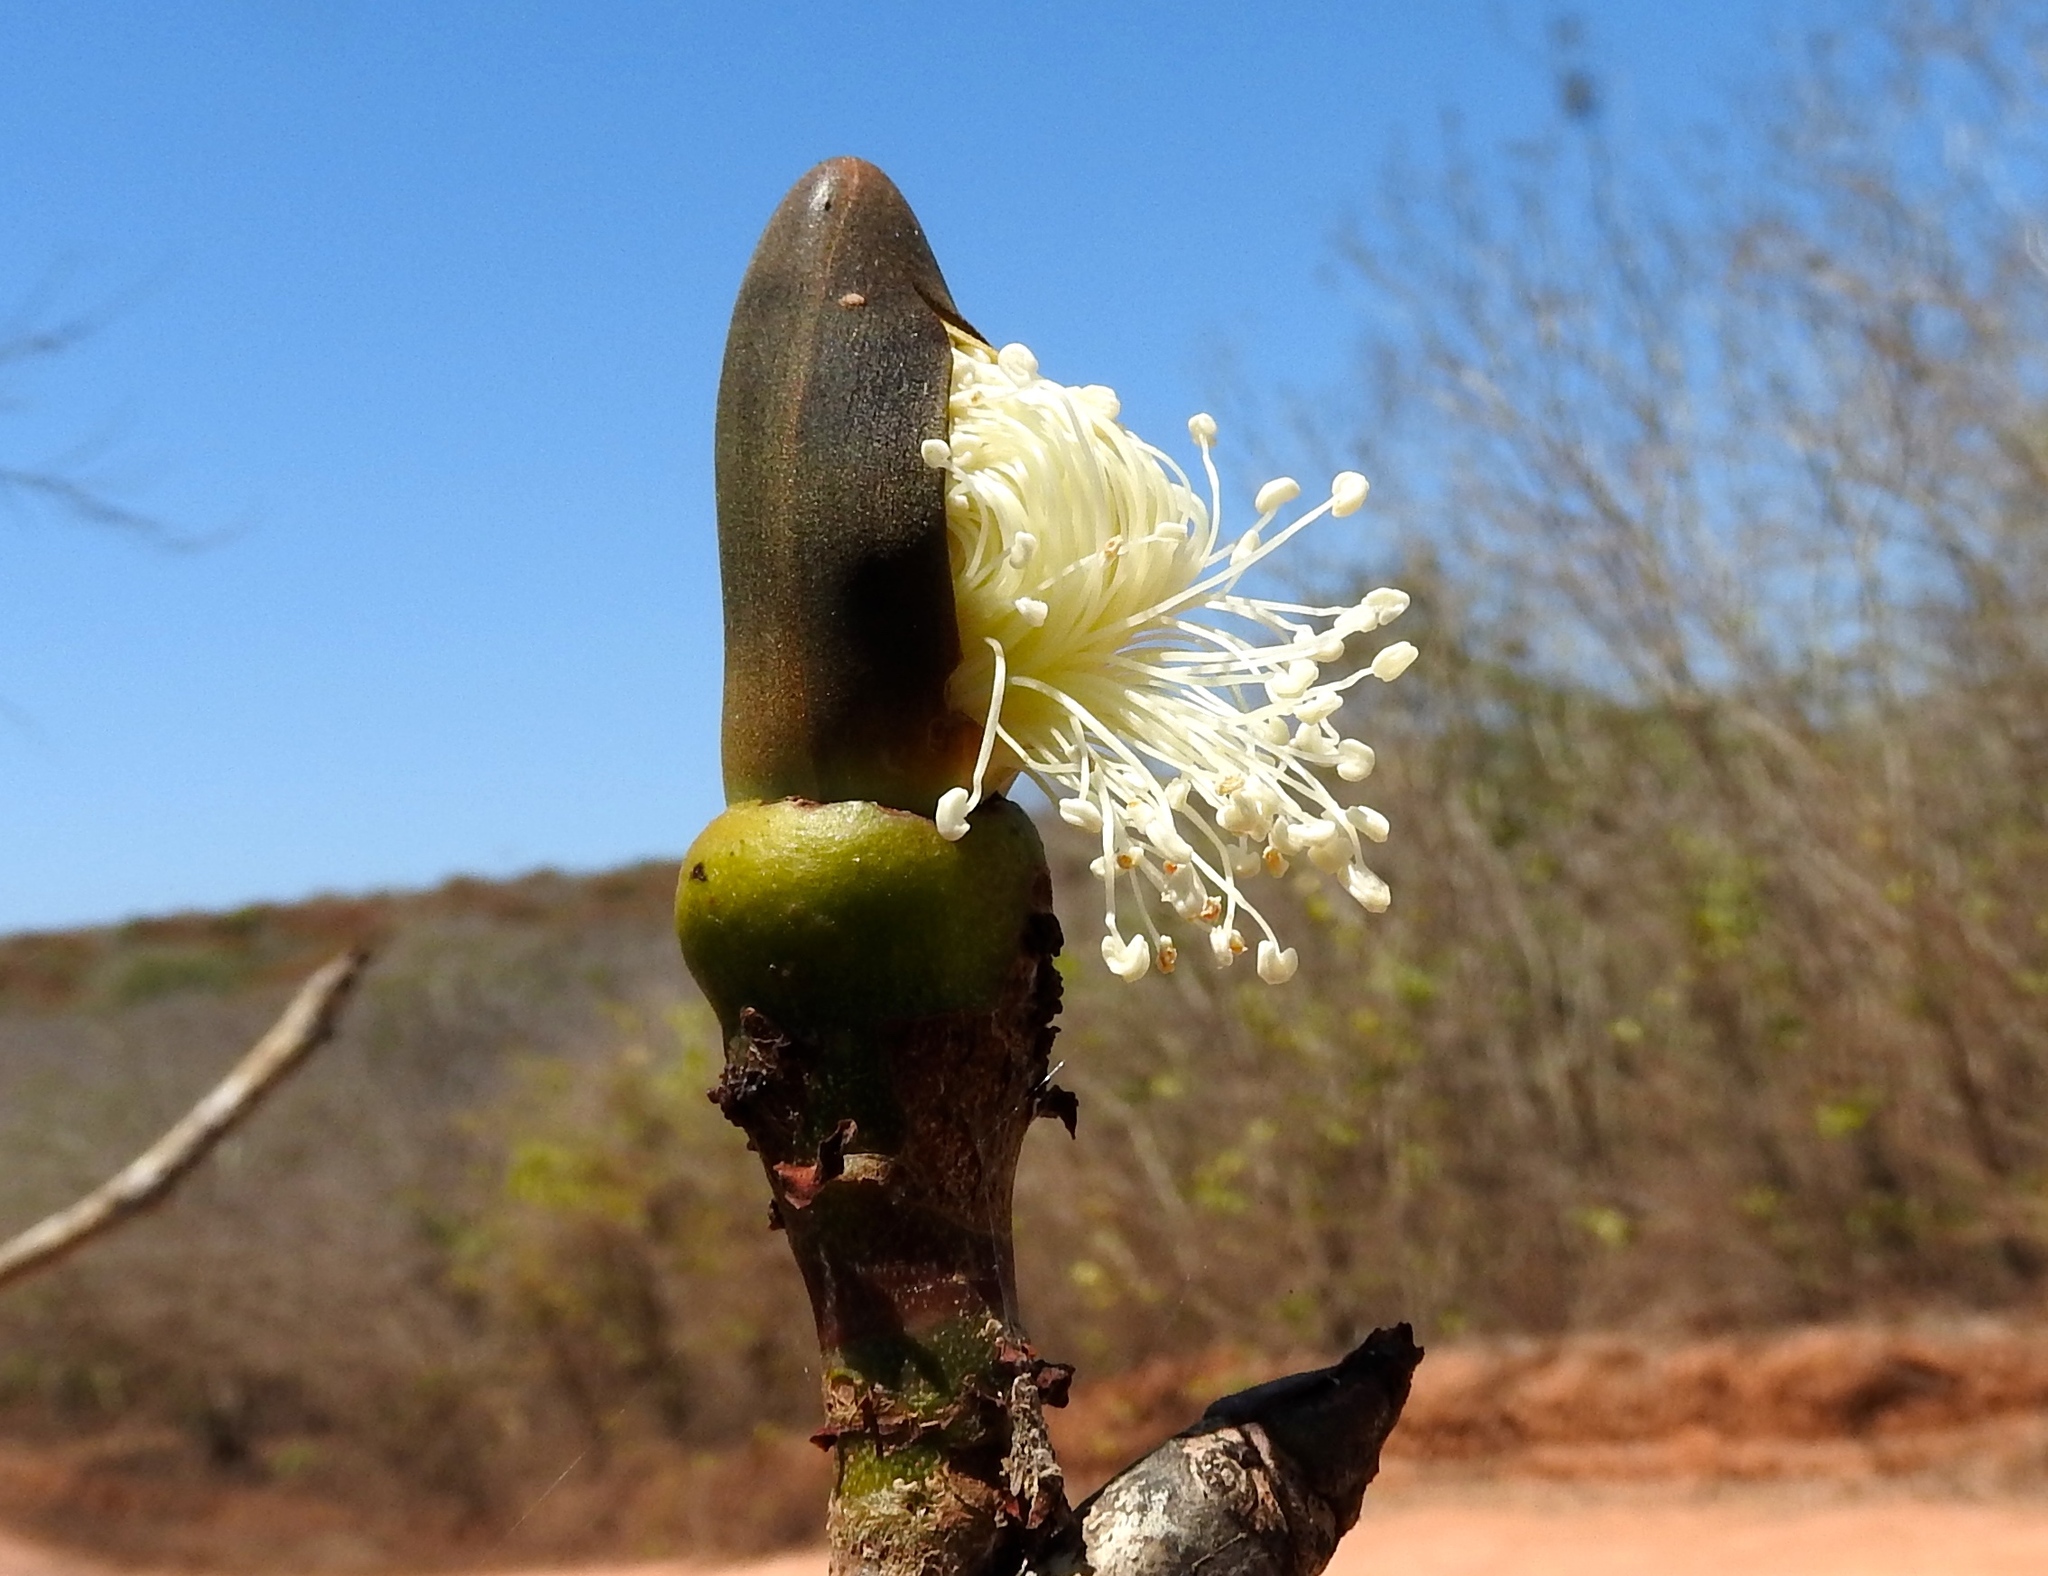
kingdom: Plantae
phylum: Tracheophyta
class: Magnoliopsida
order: Malvales
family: Malvaceae
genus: Pseudobombax
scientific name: Pseudobombax palmeri
